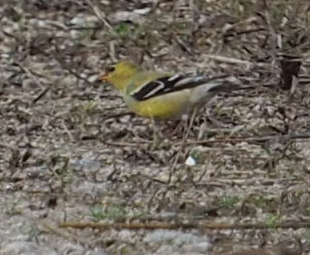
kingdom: Animalia
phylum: Chordata
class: Aves
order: Passeriformes
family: Fringillidae
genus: Spinus
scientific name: Spinus tristis
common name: American goldfinch
